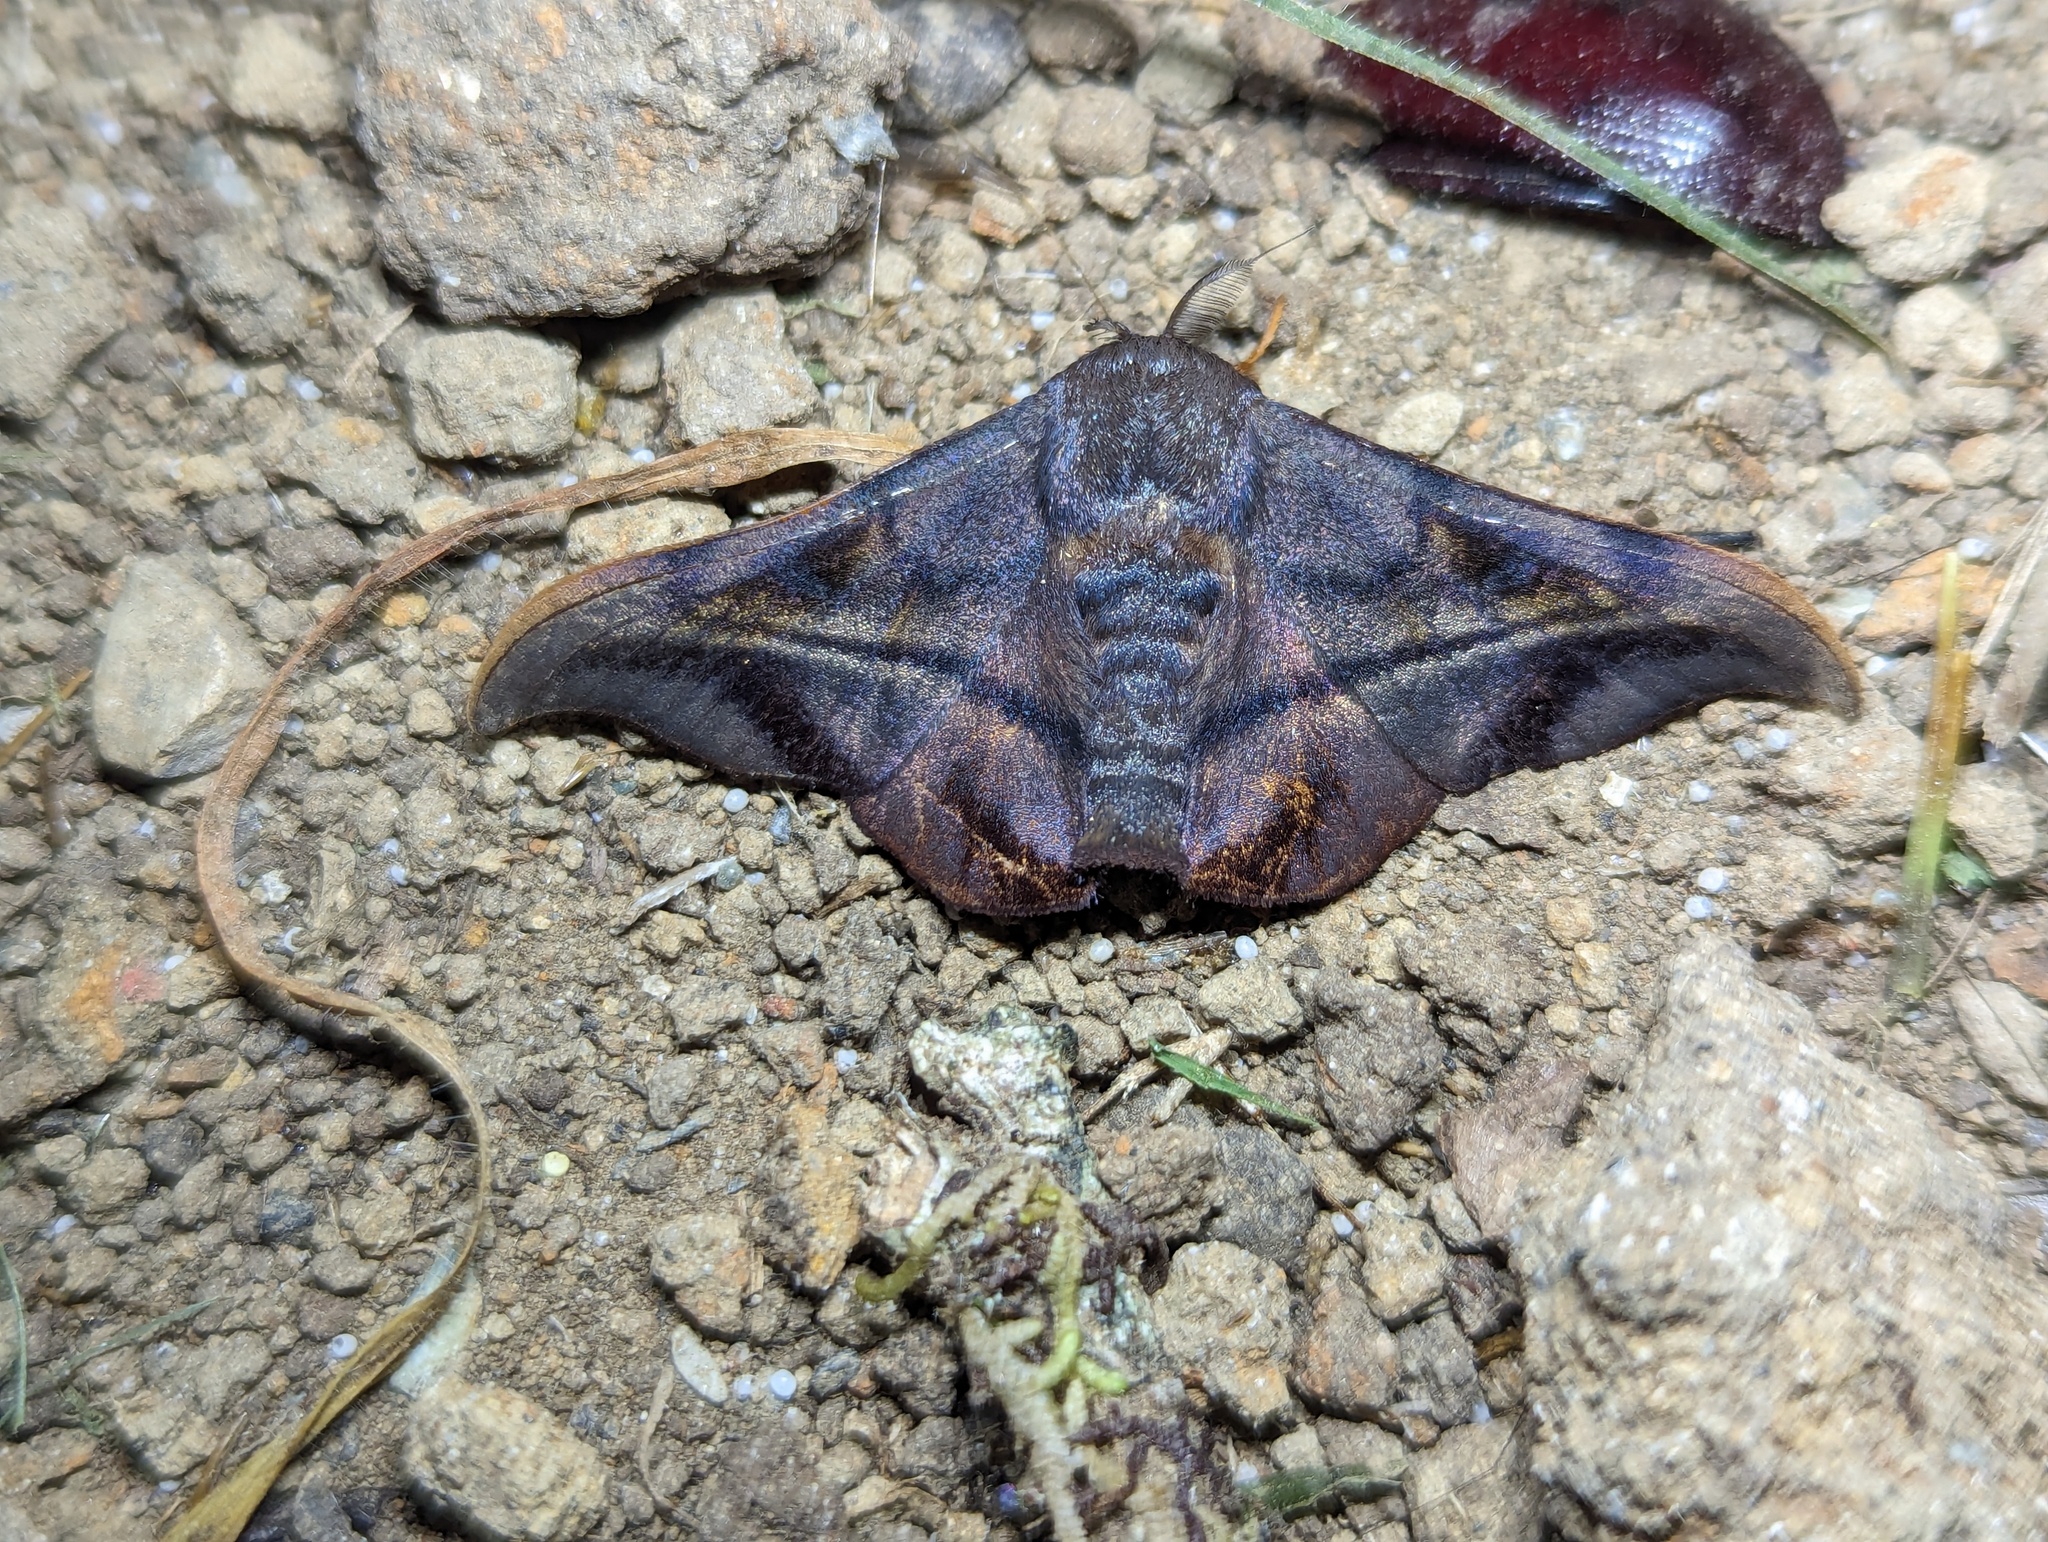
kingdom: Animalia
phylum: Arthropoda
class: Insecta
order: Lepidoptera
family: Mimallonidae
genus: Thaelia
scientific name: Thaelia subrubiginosa
